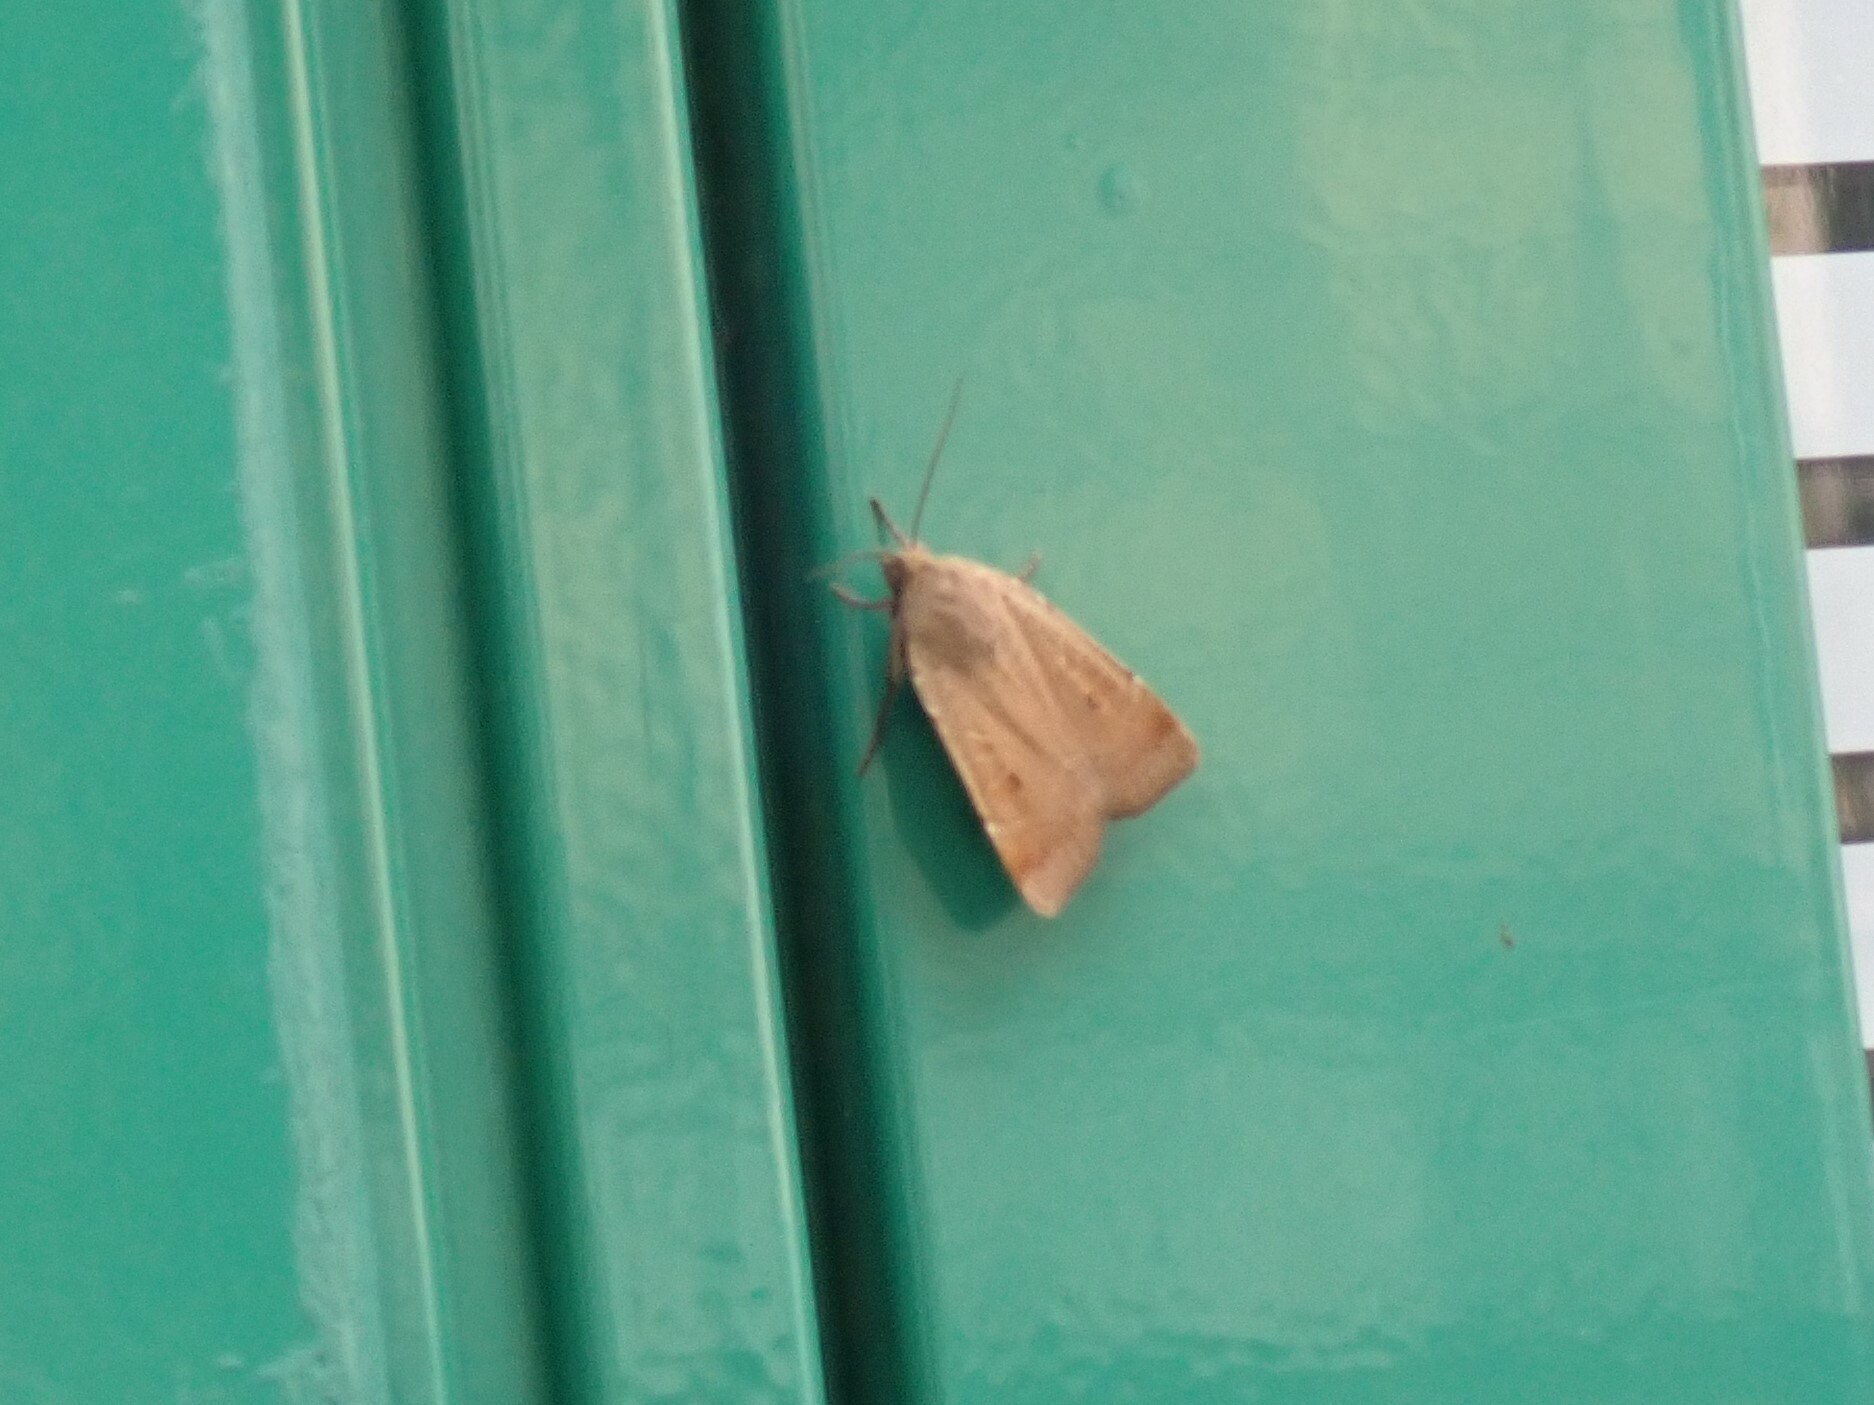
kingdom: Animalia
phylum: Arthropoda
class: Insecta
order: Lepidoptera
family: Noctuidae
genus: Noctua
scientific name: Noctua comes
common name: Lesser yellow underwing
